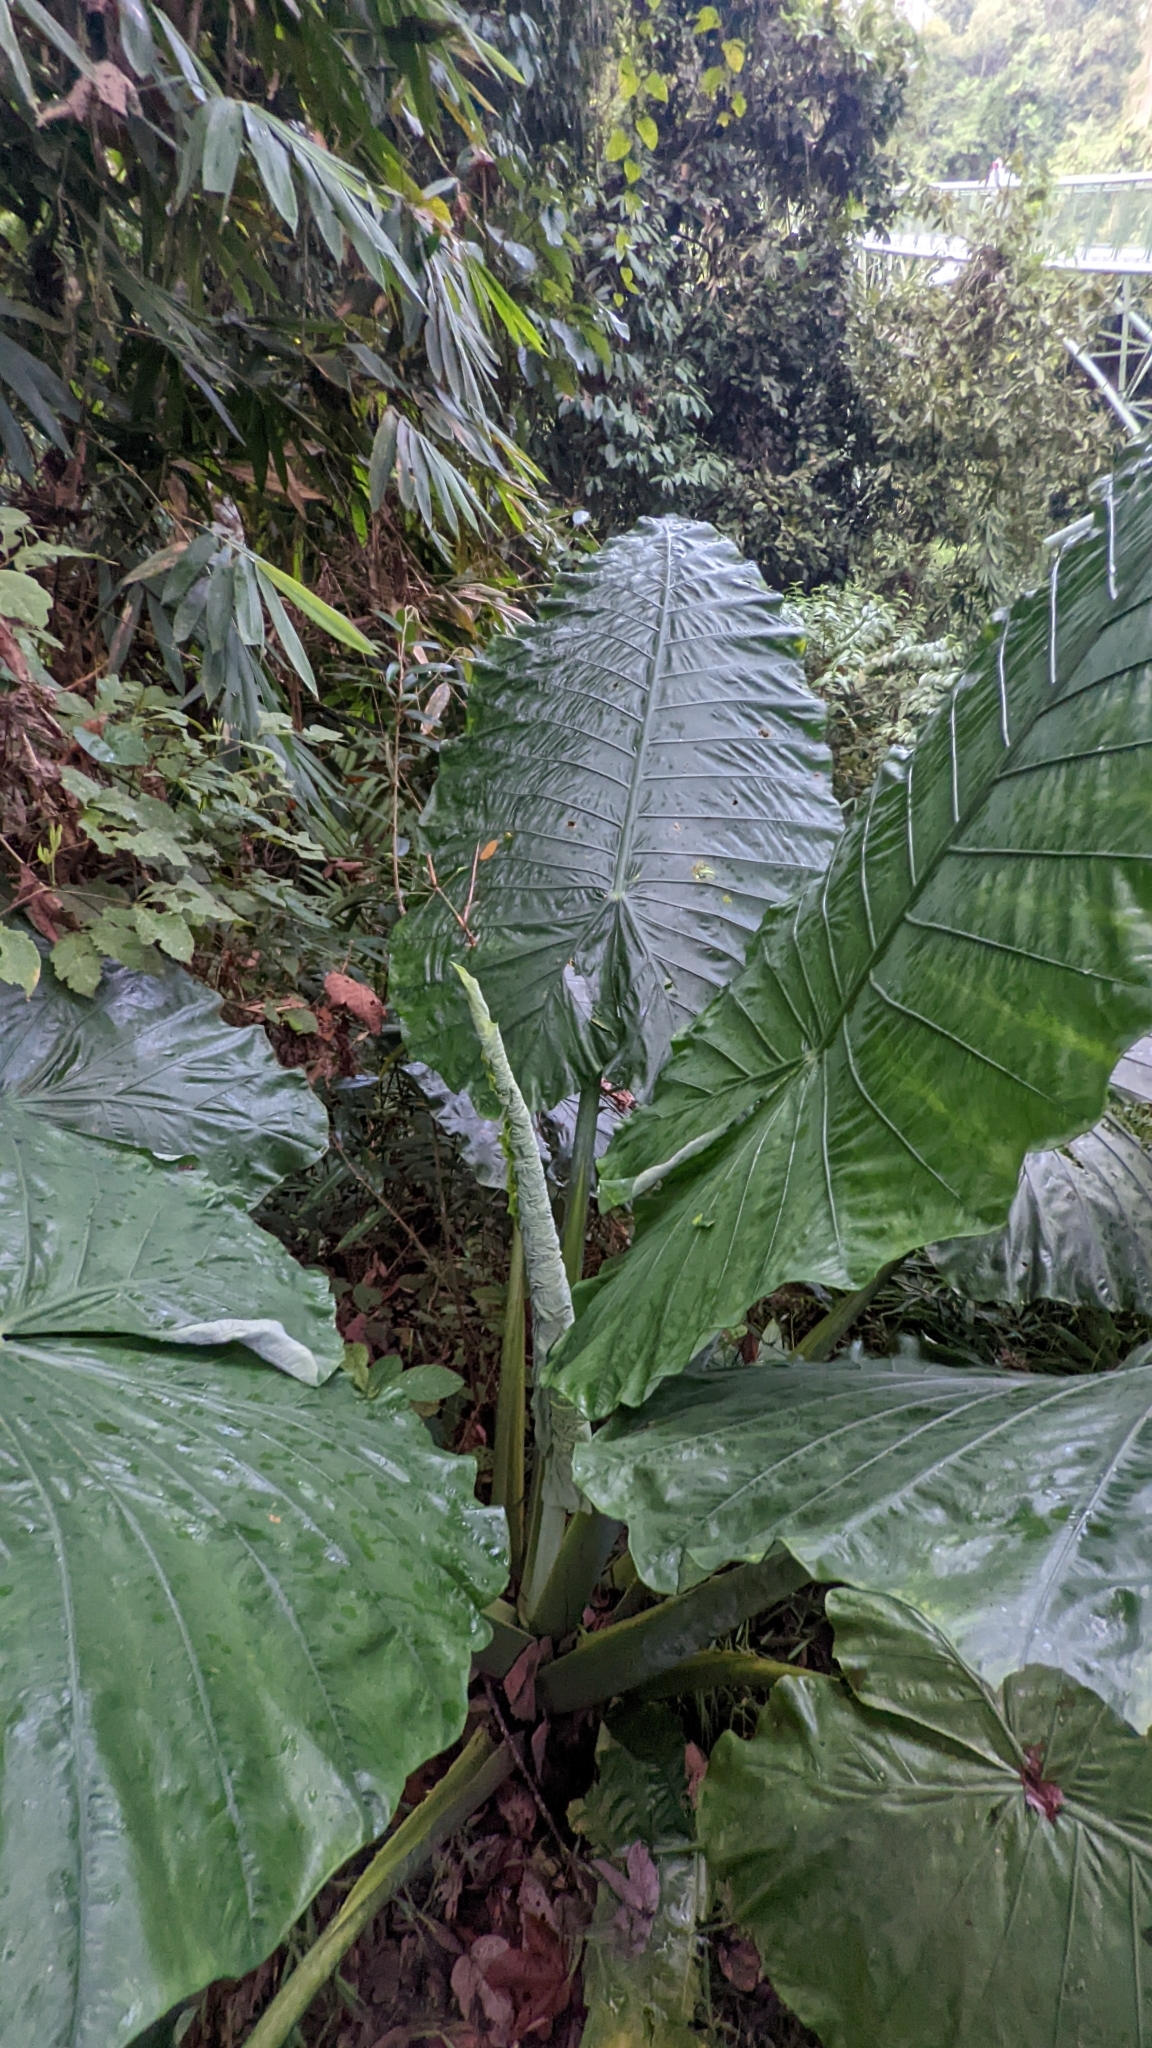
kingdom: Plantae
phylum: Tracheophyta
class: Liliopsida
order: Alismatales
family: Araceae
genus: Alocasia
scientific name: Alocasia robusta
